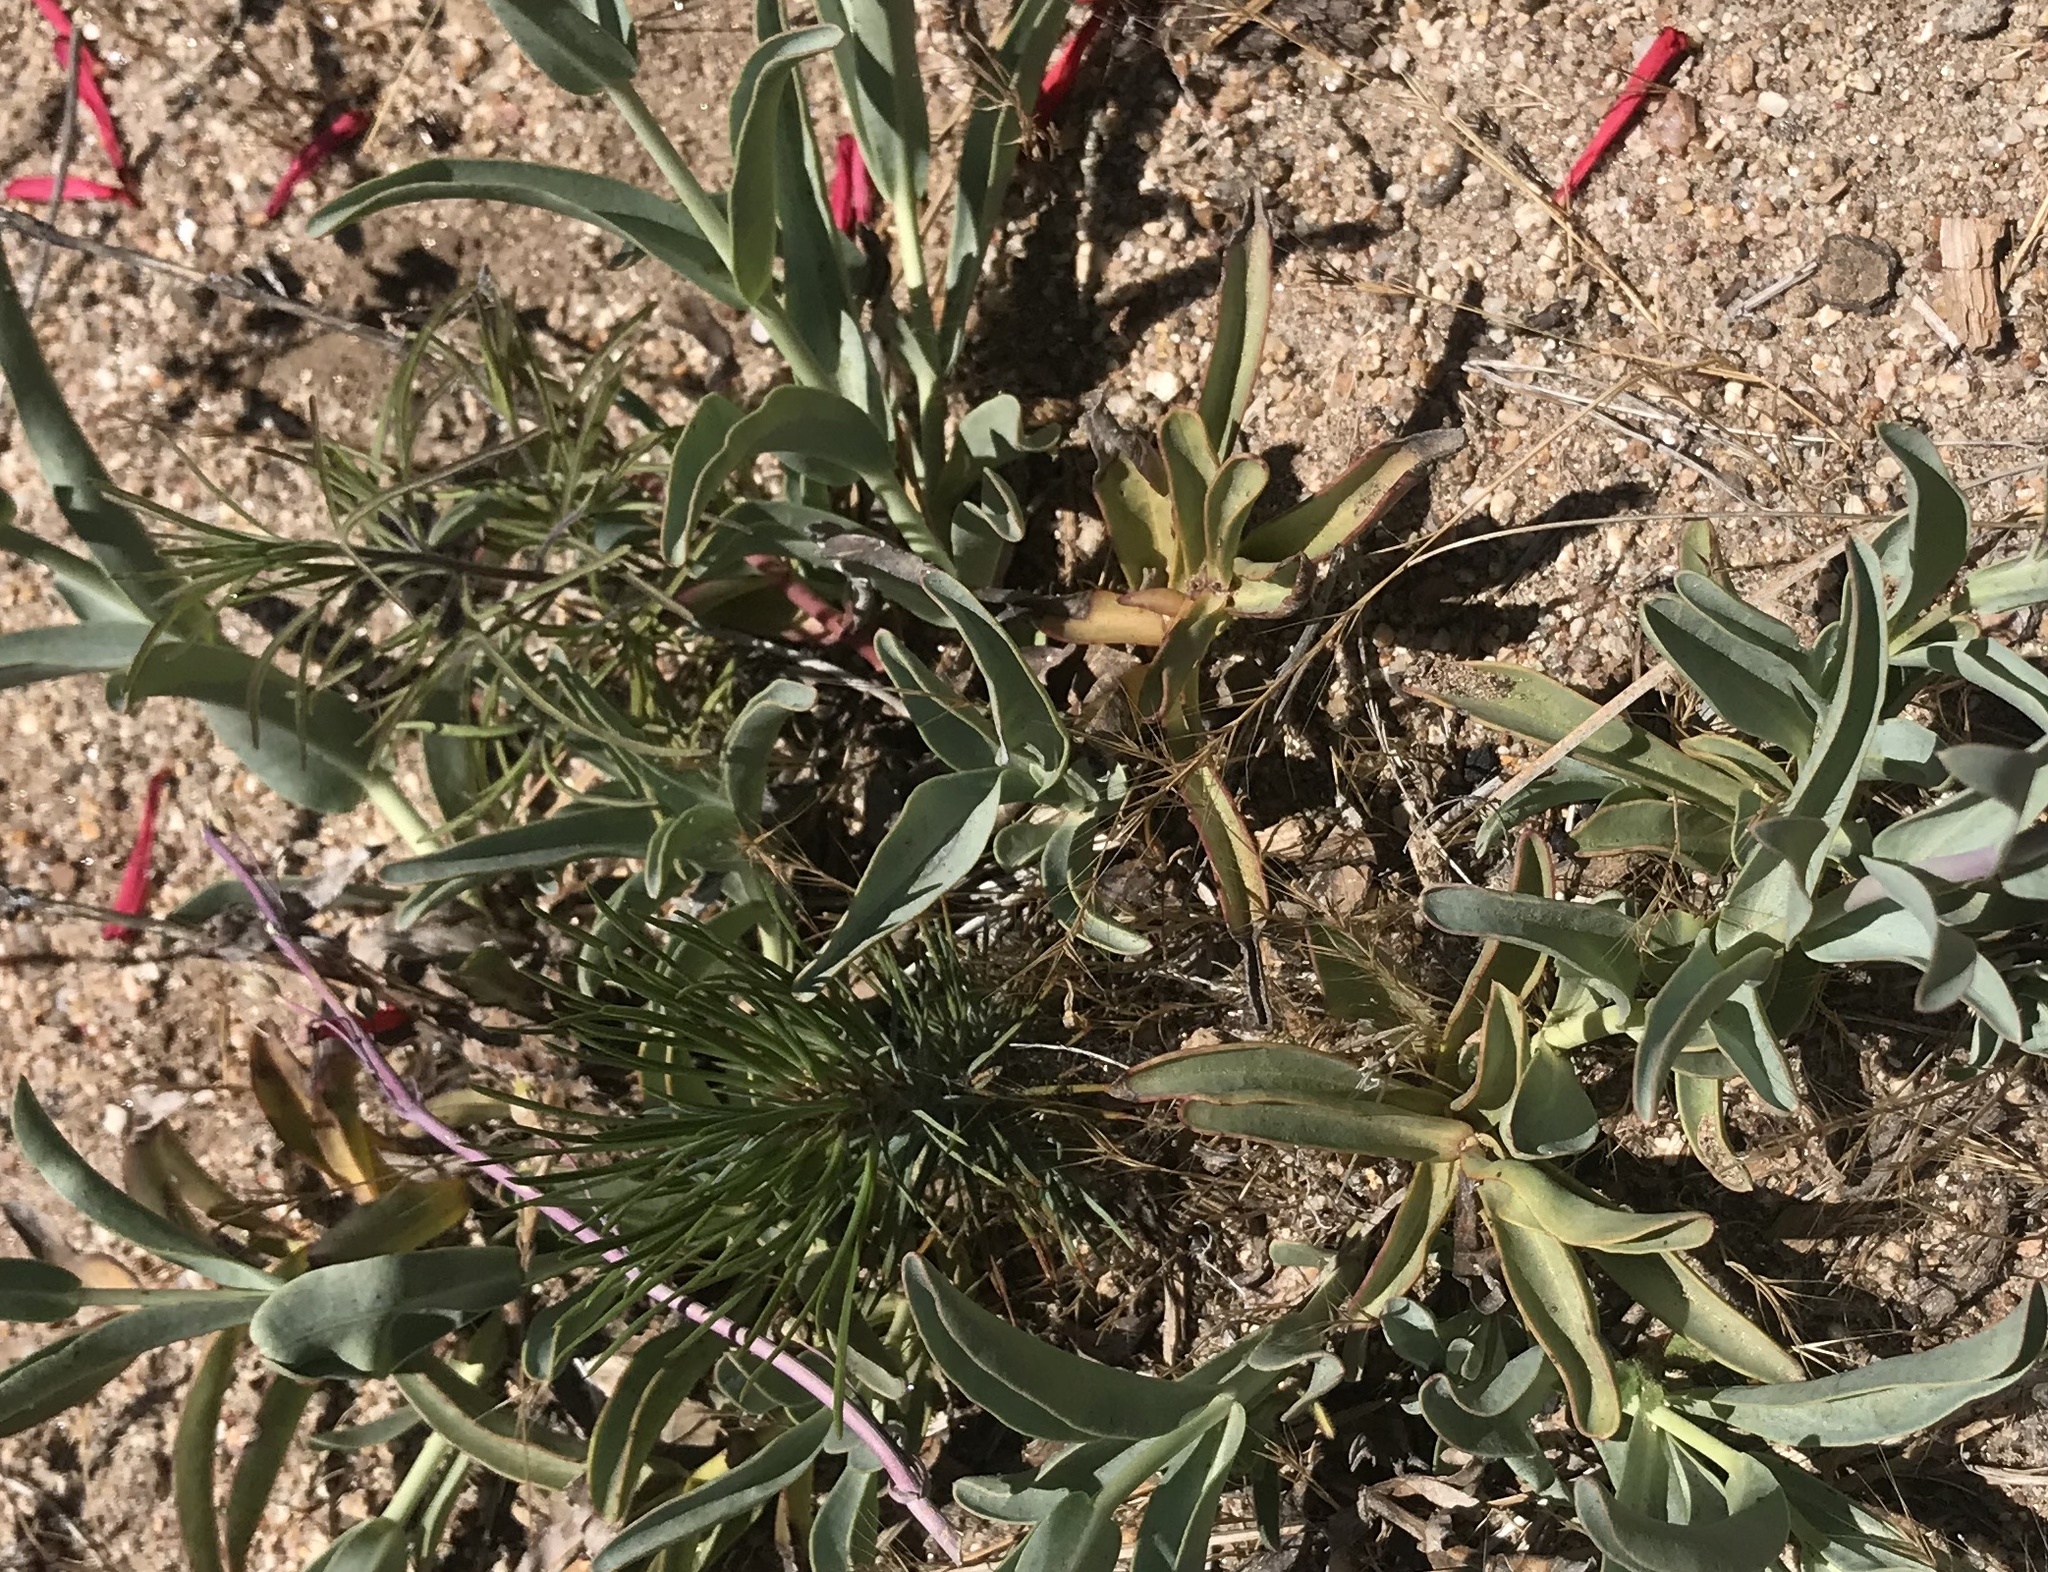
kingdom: Plantae
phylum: Tracheophyta
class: Magnoliopsida
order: Lamiales
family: Plantaginaceae
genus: Penstemon
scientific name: Penstemon centranthifolius
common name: Scarlet bugler
